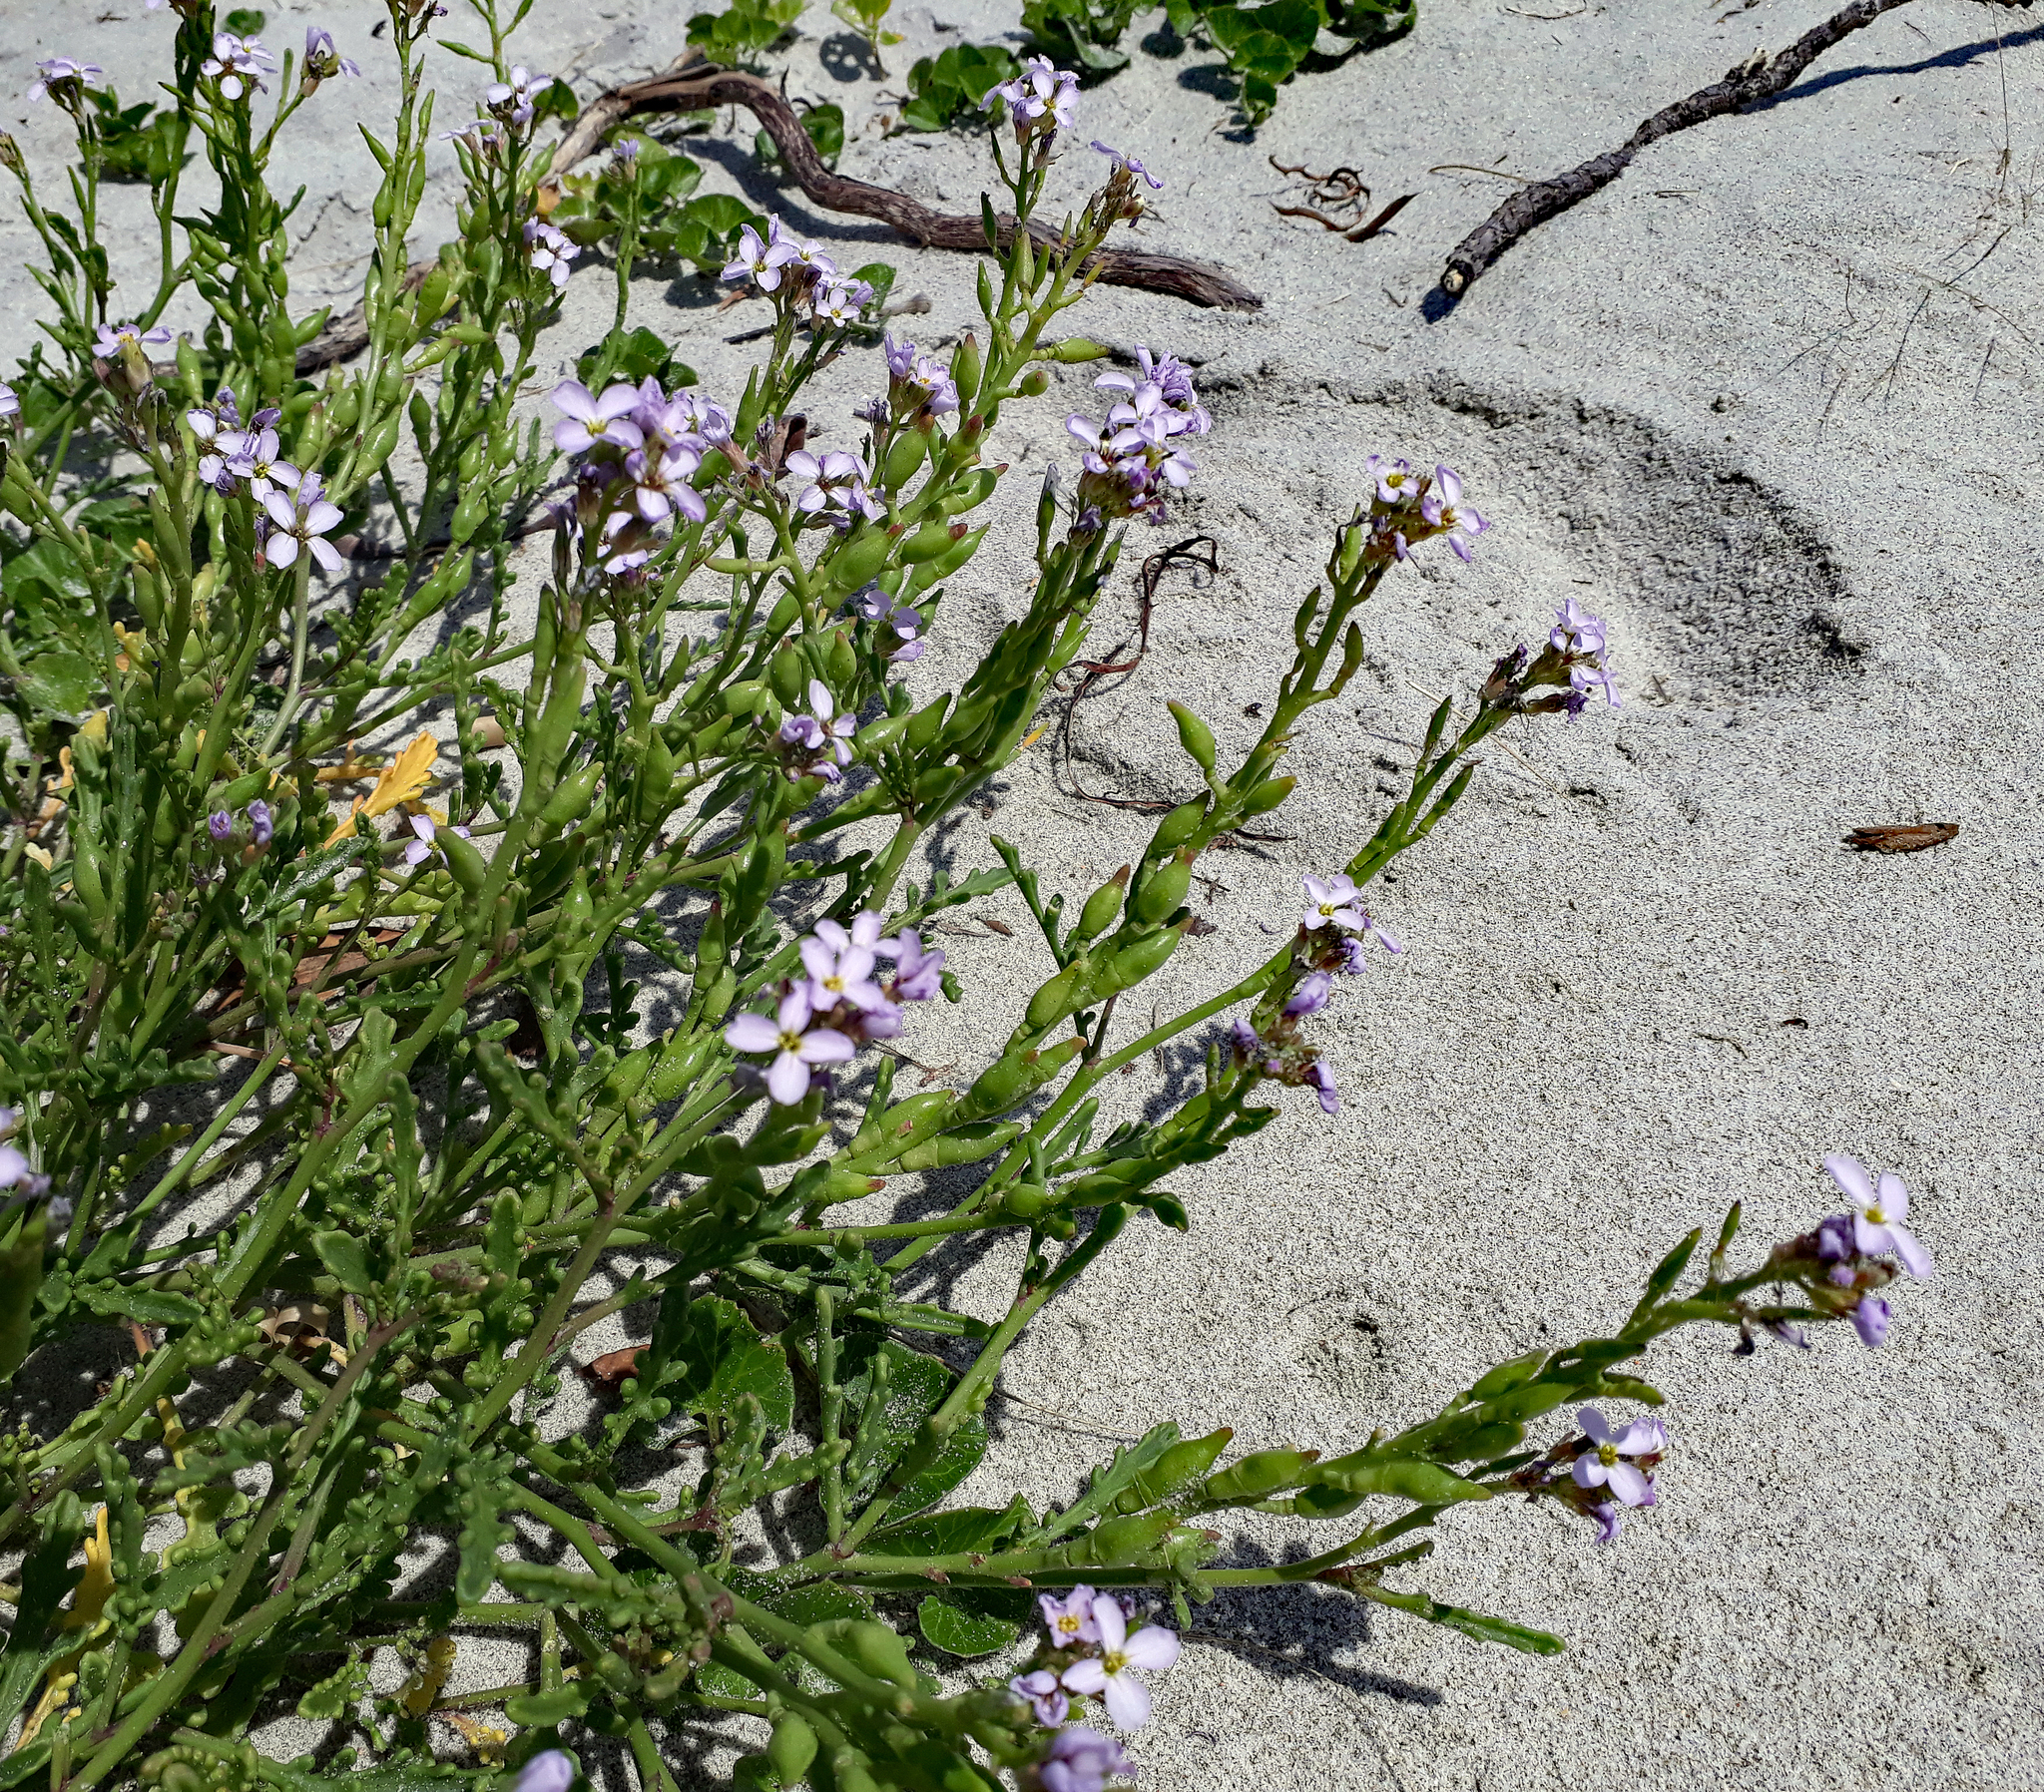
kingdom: Plantae
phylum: Tracheophyta
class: Magnoliopsida
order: Brassicales
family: Brassicaceae
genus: Cakile
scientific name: Cakile maritima
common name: Sea rocket
